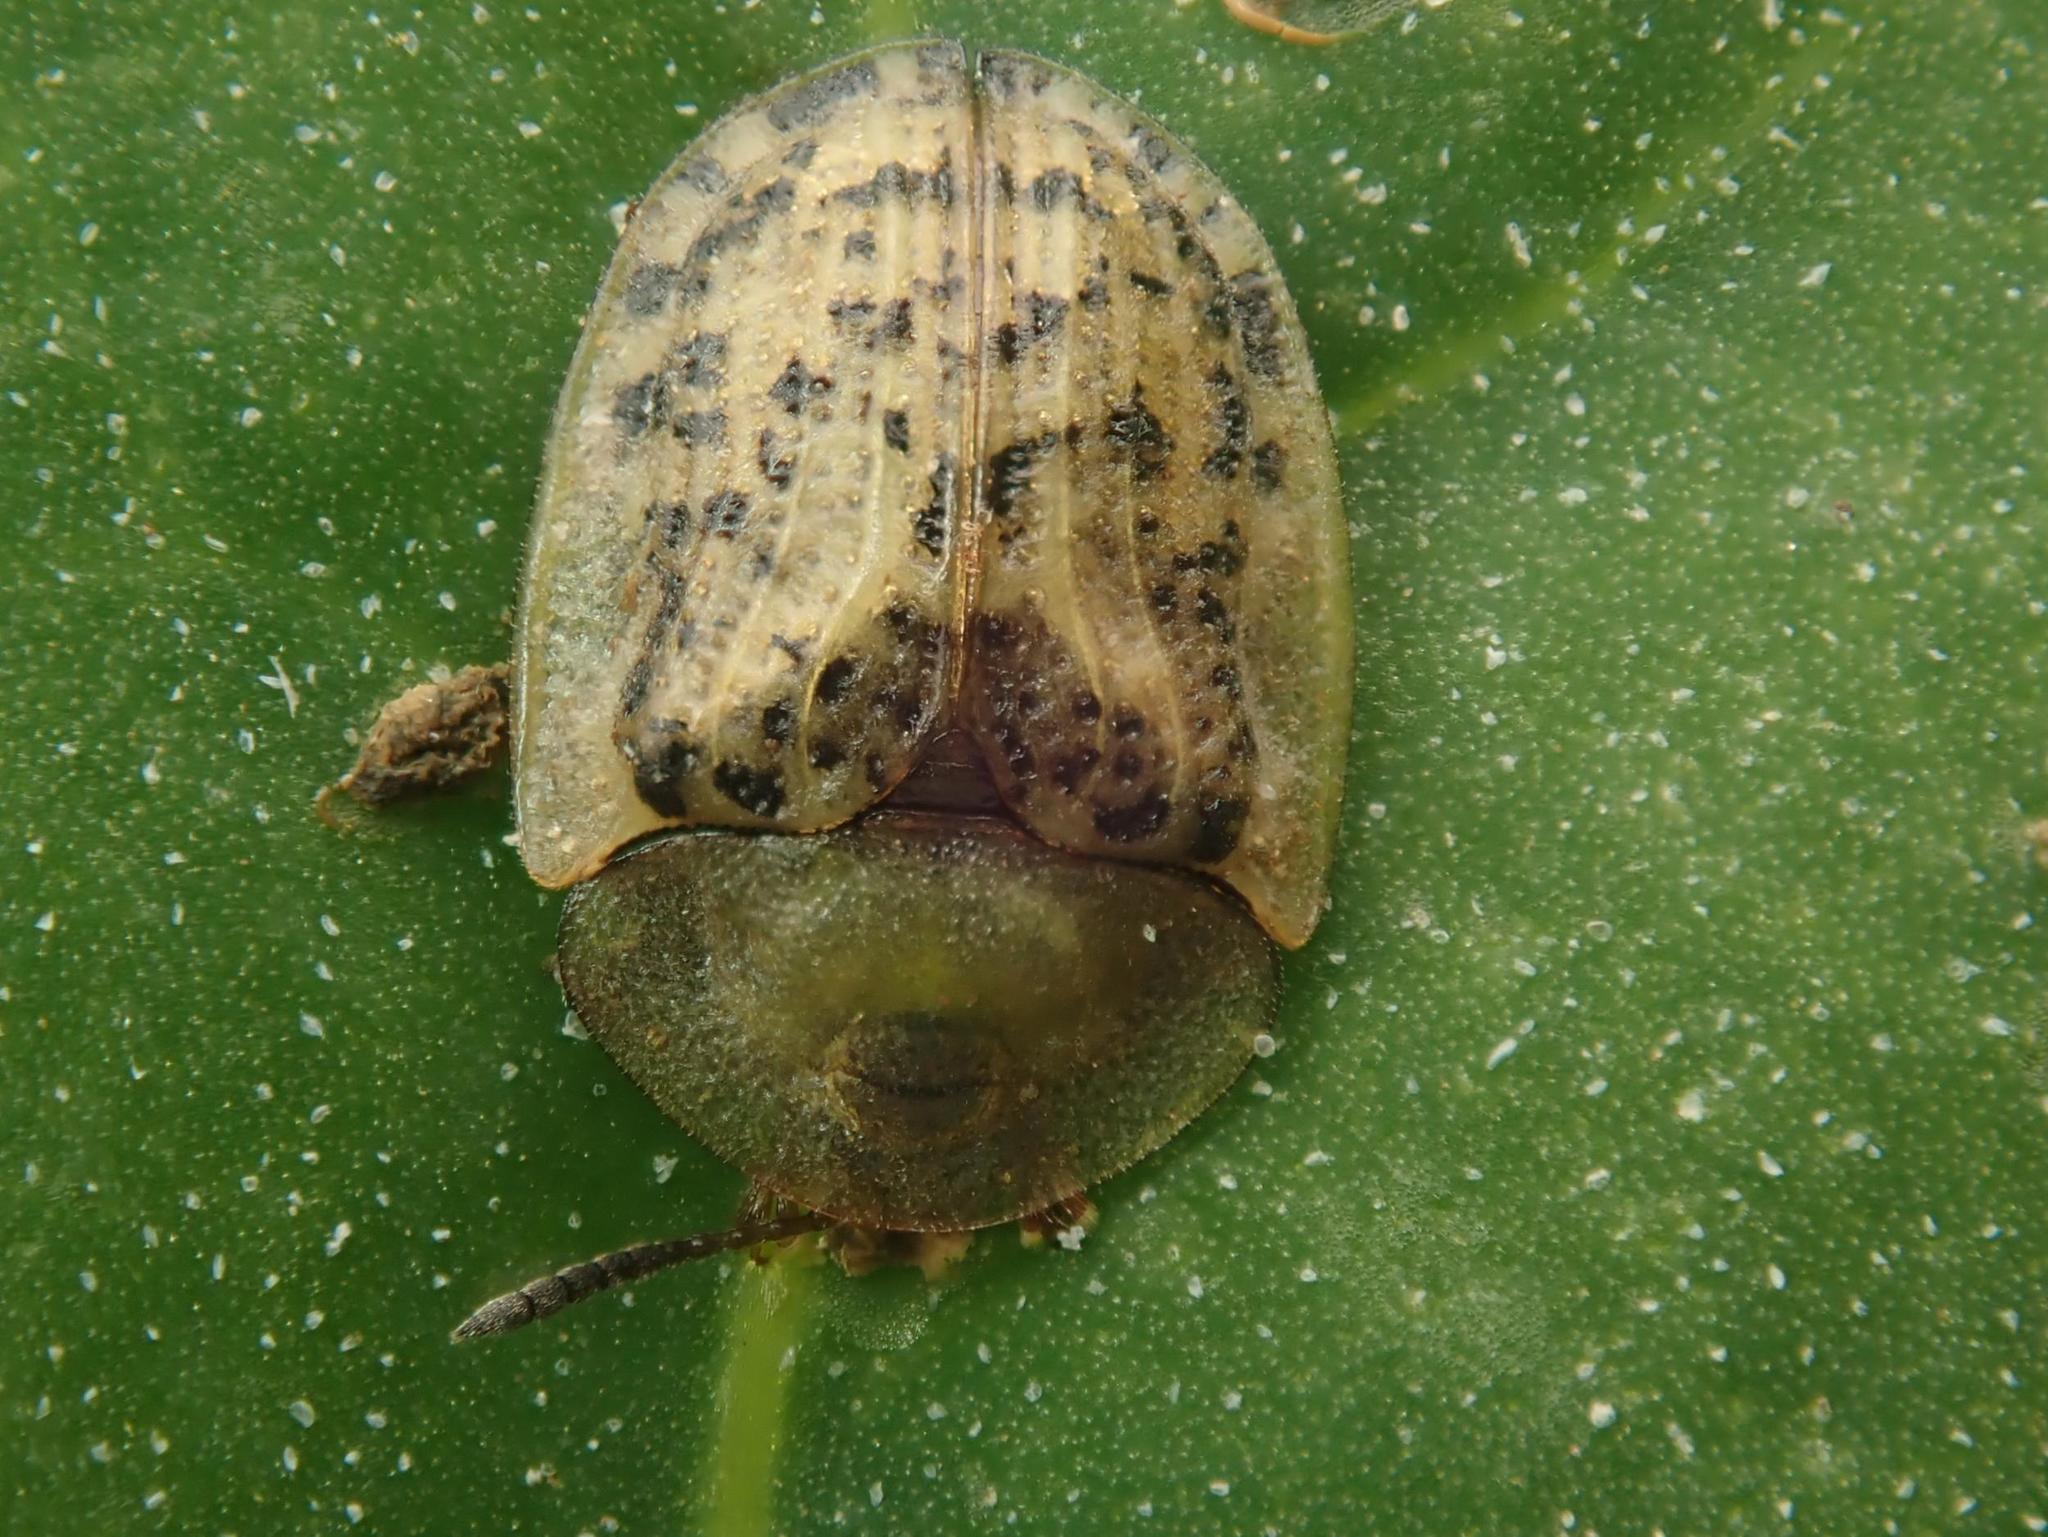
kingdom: Animalia
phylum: Arthropoda
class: Insecta
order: Coleoptera
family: Chrysomelidae
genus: Cassida
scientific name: Cassida nebulosa
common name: Beet tortoise beetle
